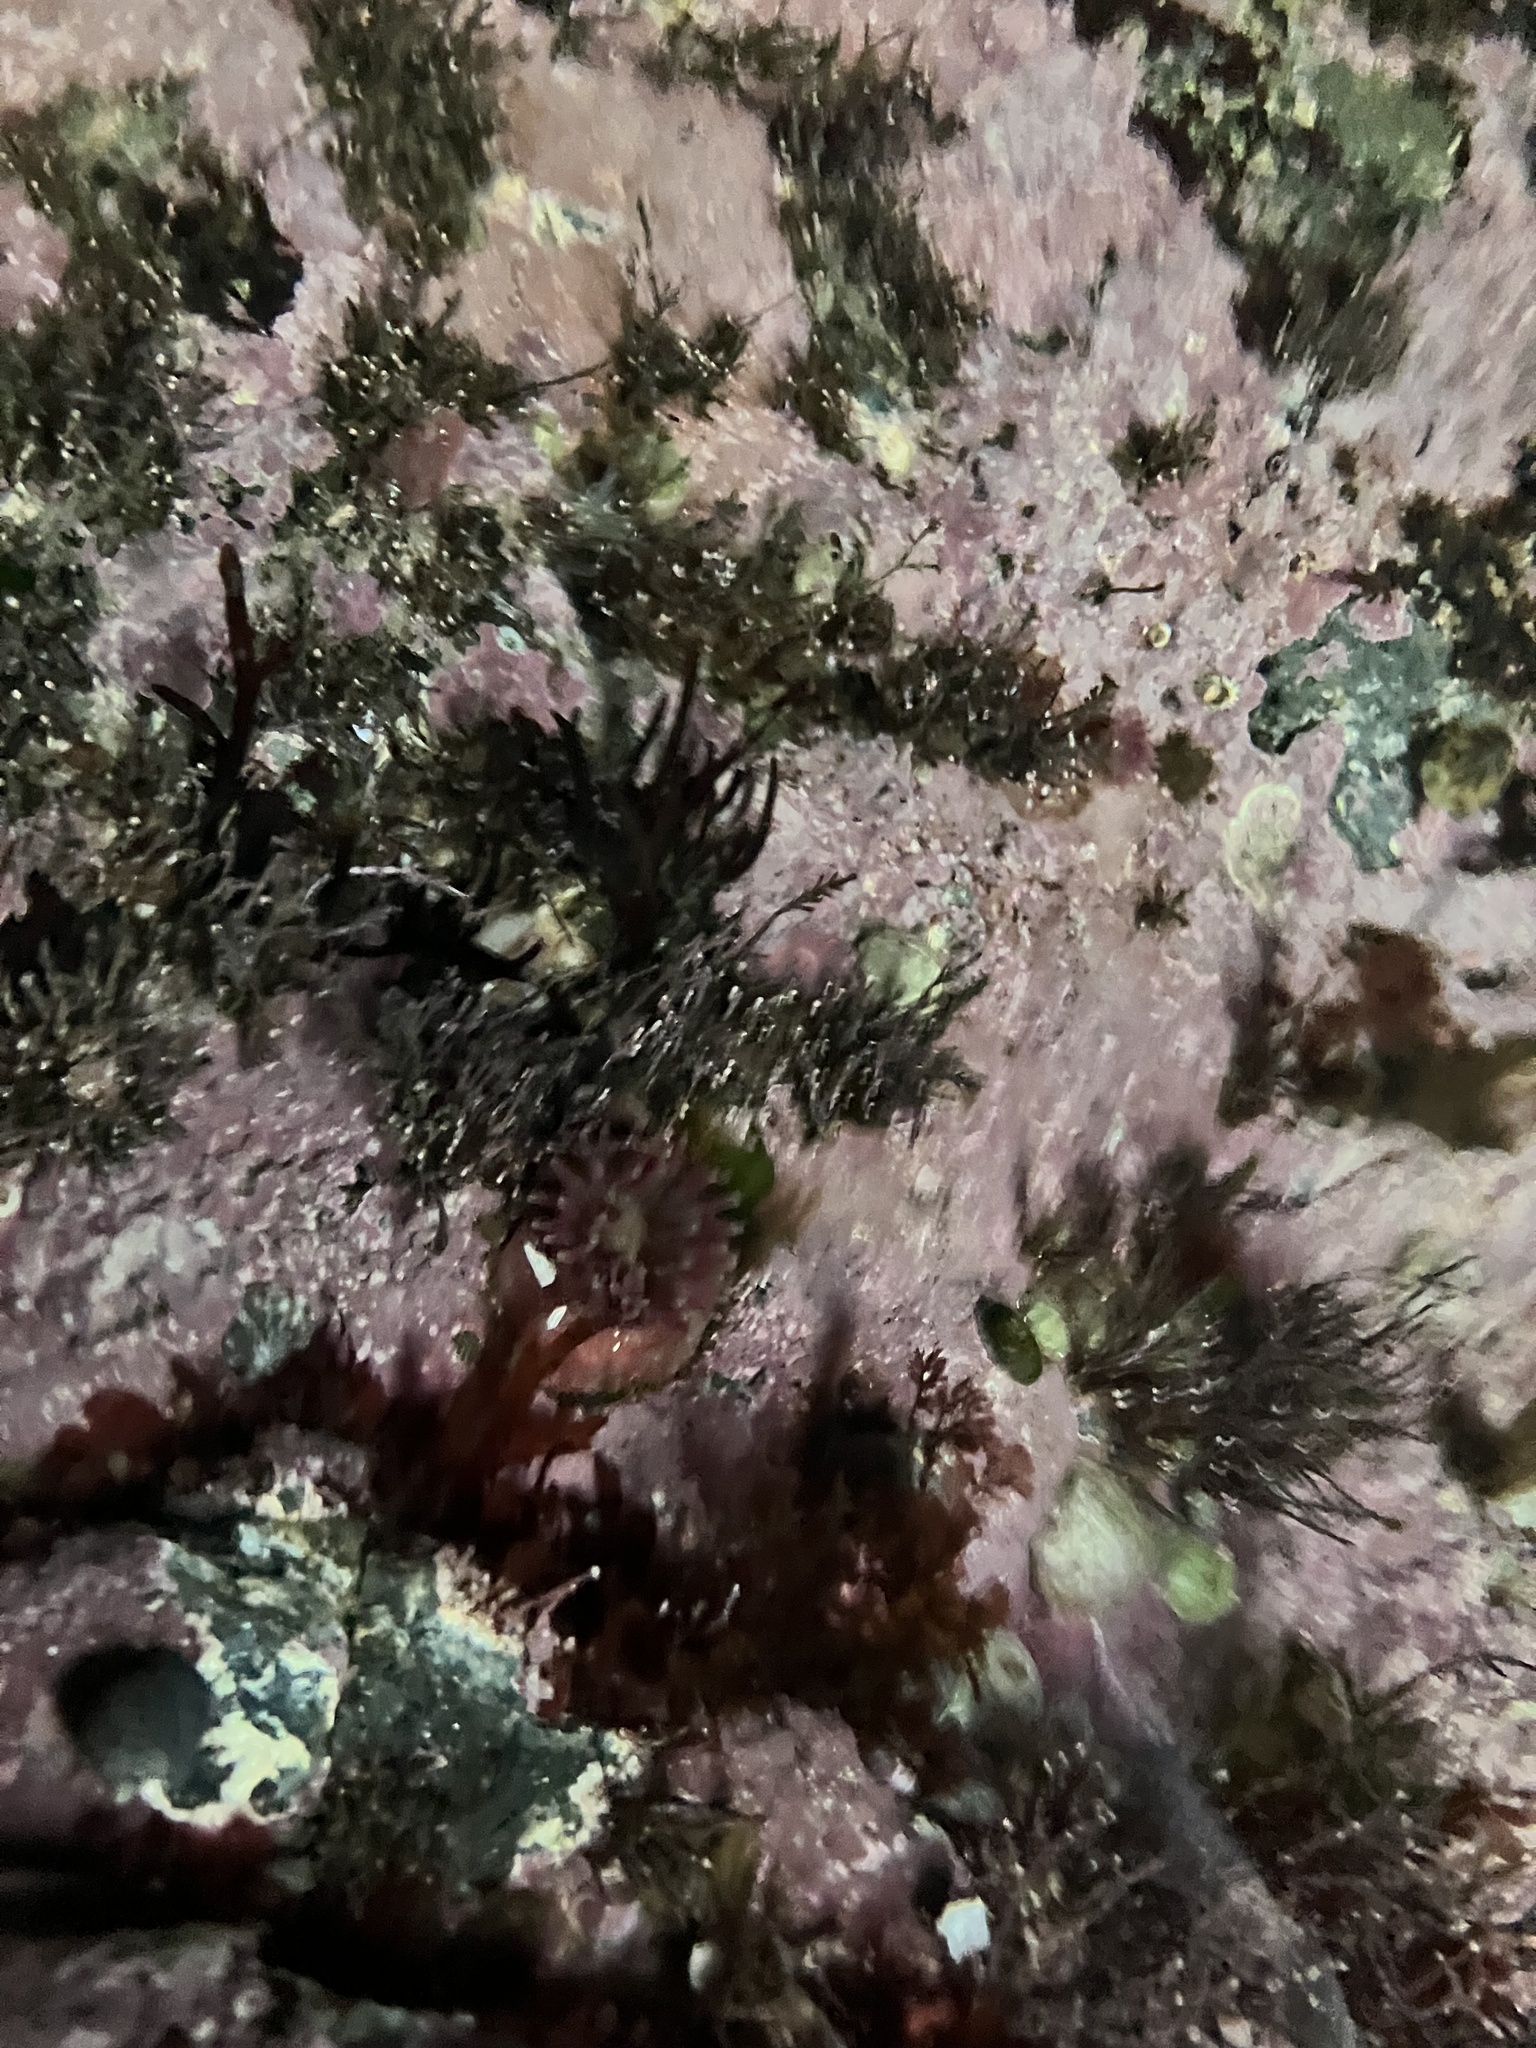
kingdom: Animalia
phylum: Cnidaria
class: Anthozoa
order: Actiniaria
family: Actiniidae
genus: Urticina
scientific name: Urticina crassicornis
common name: Mottled anemone
